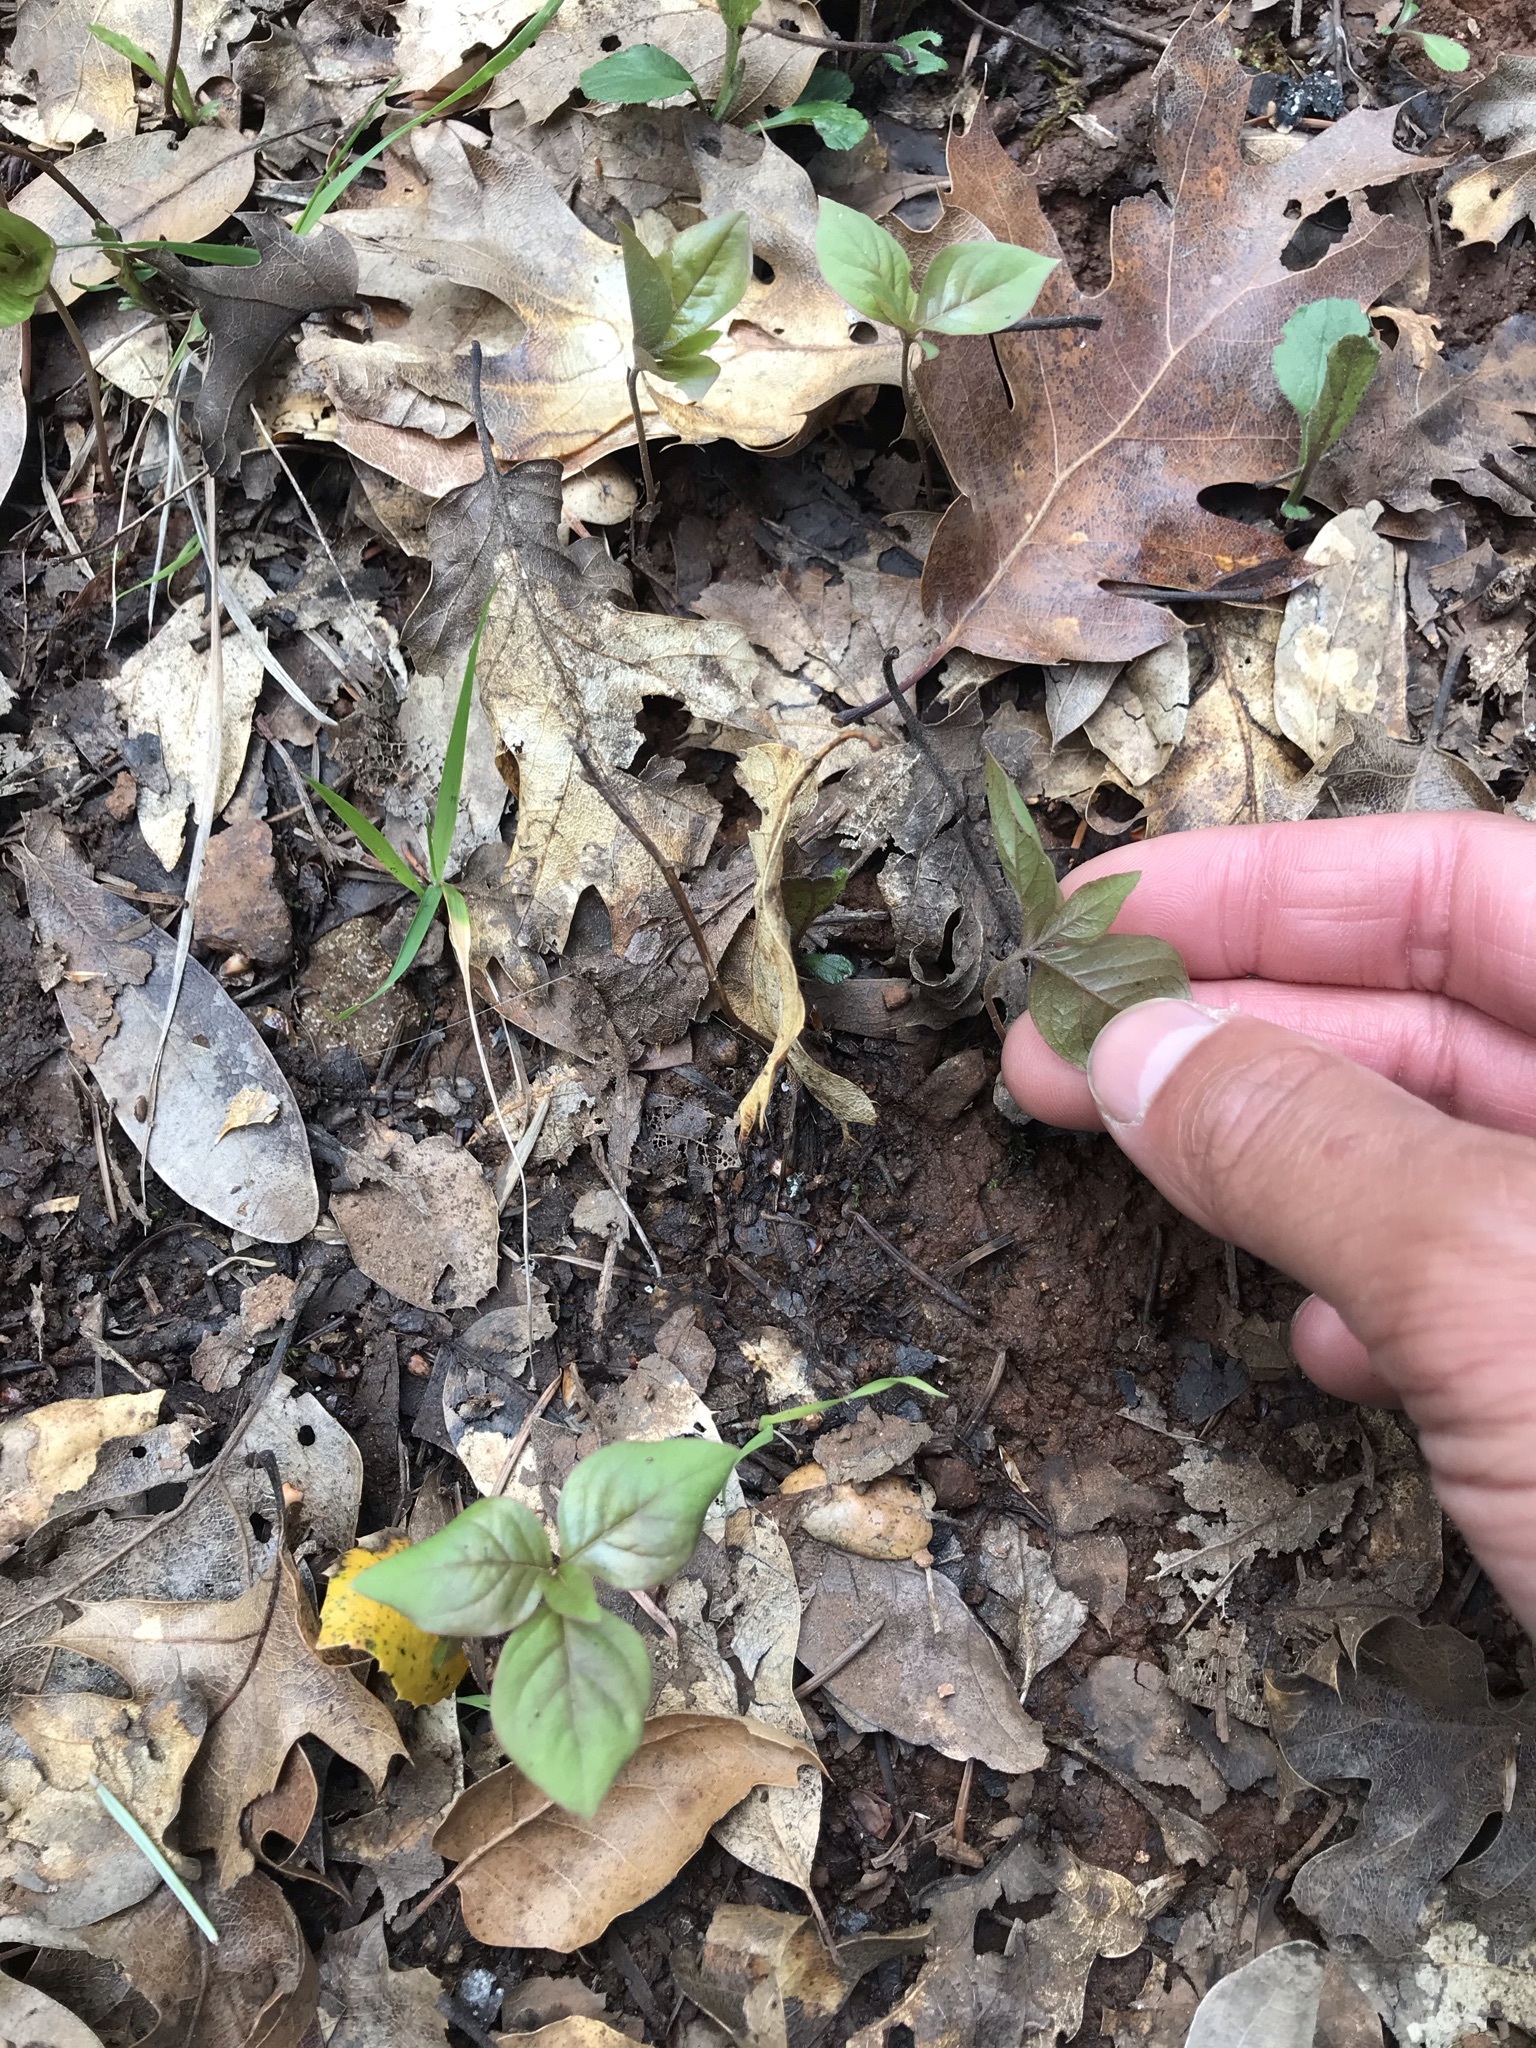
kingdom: Plantae
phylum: Tracheophyta
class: Magnoliopsida
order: Ericales
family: Primulaceae
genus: Lysimachia
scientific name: Lysimachia latifolia
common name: Pacific starflower
